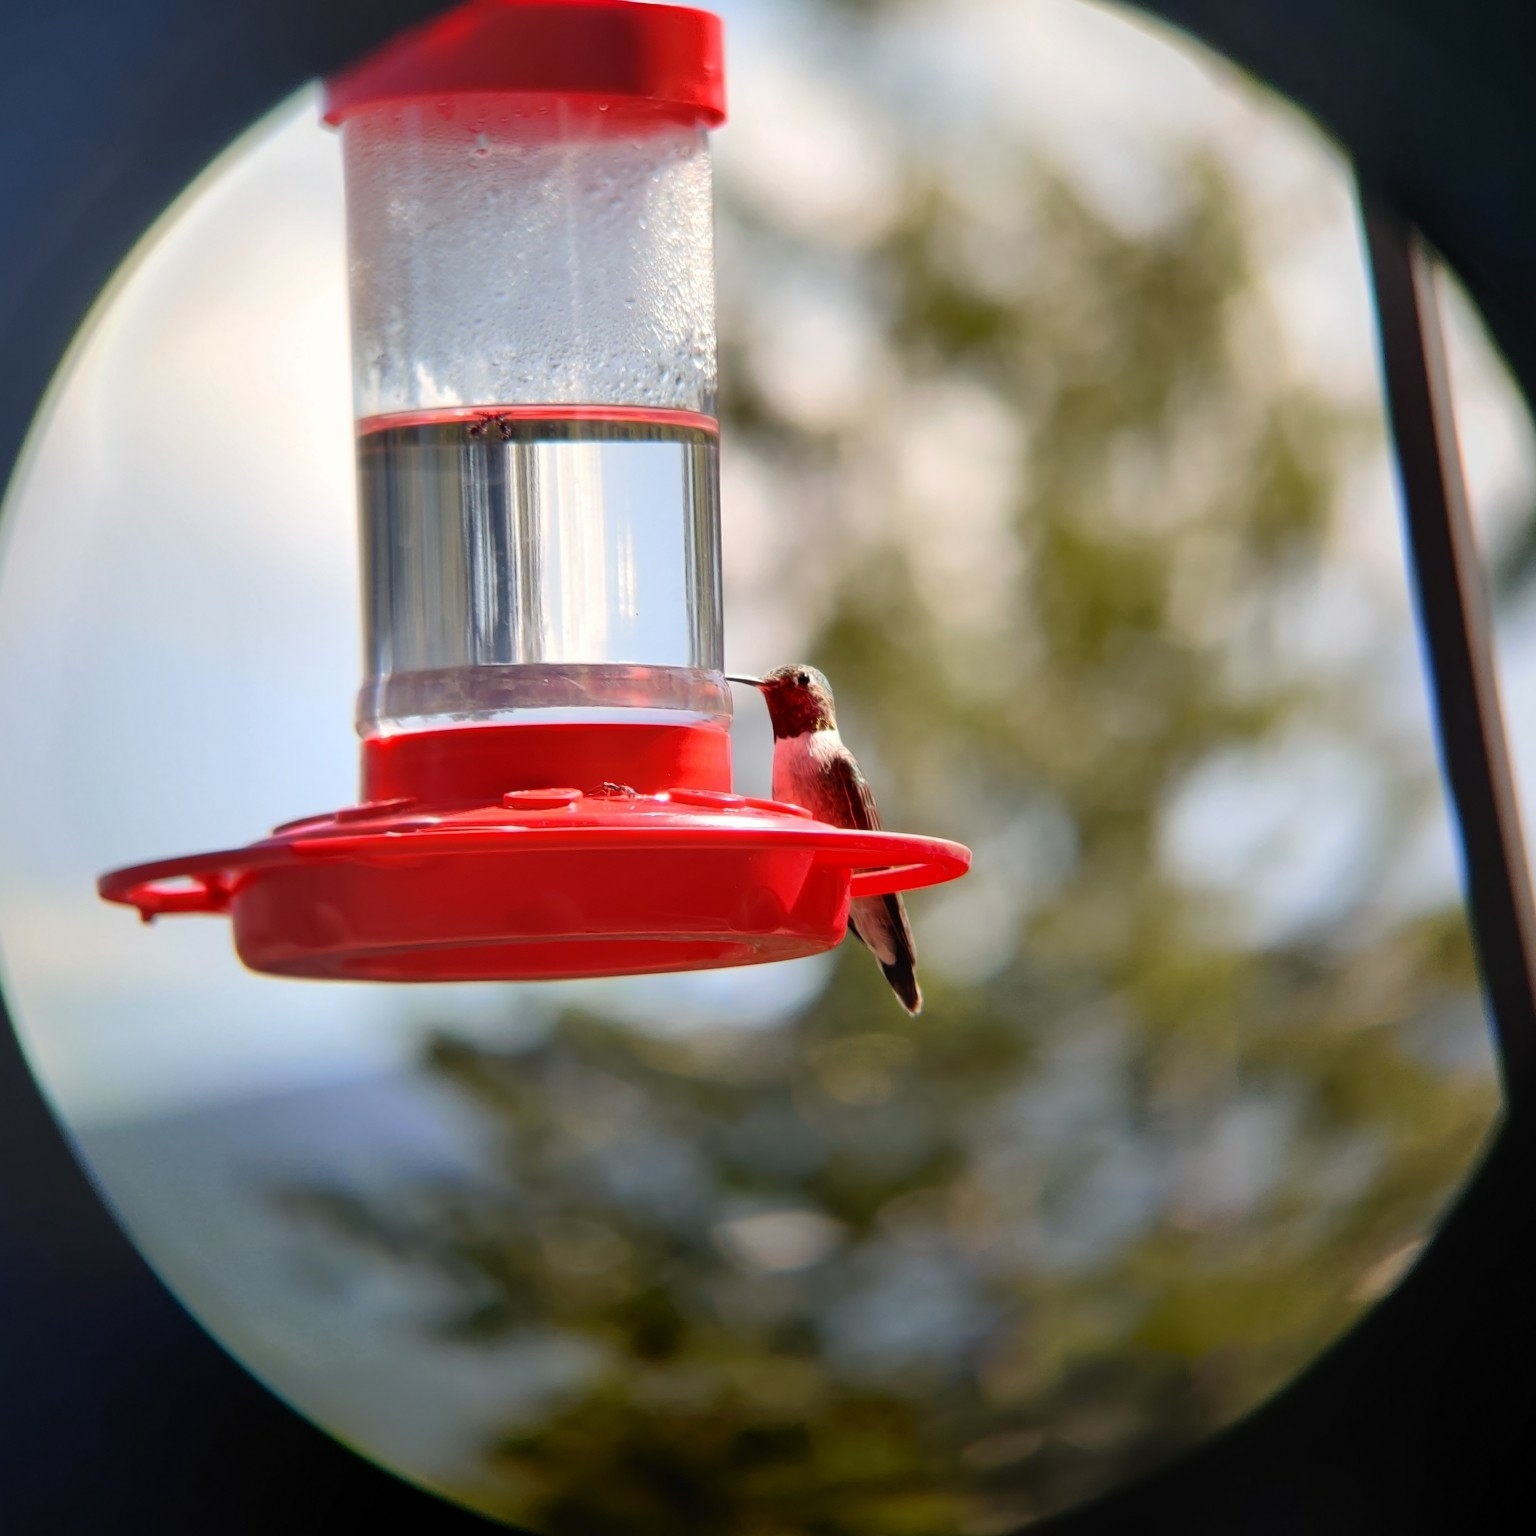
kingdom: Animalia
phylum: Chordata
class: Aves
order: Apodiformes
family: Trochilidae
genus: Selasphorus
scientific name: Selasphorus platycercus
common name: Broad-tailed hummingbird
